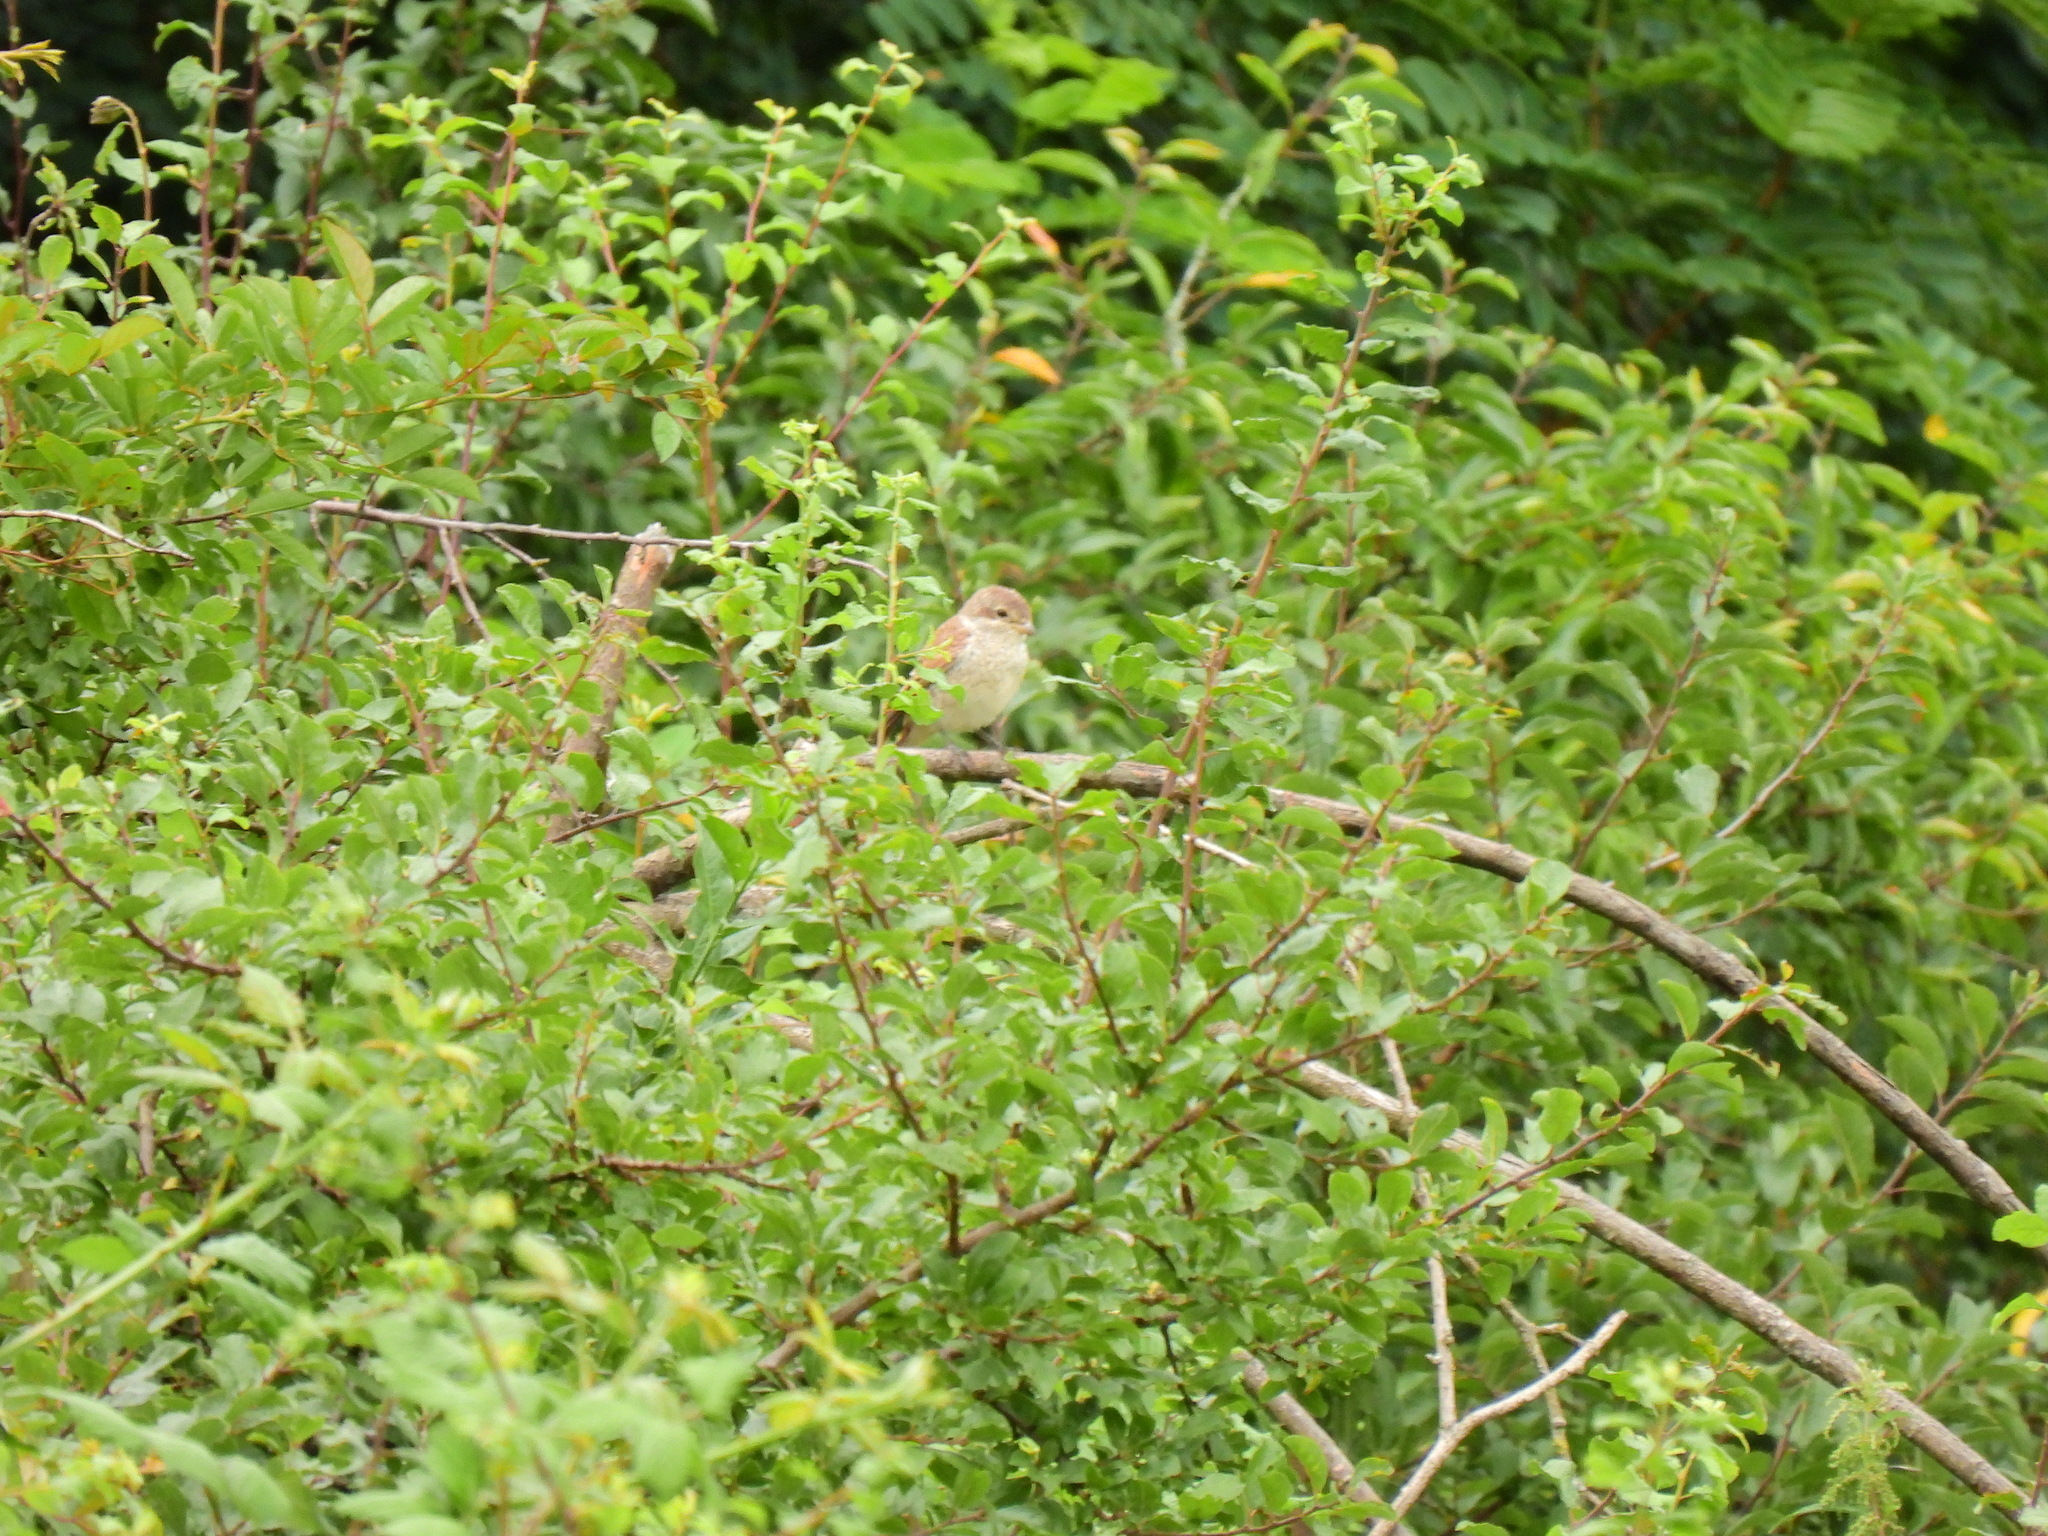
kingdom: Animalia
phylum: Chordata
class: Aves
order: Passeriformes
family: Laniidae
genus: Lanius
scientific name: Lanius collurio
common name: Red-backed shrike
